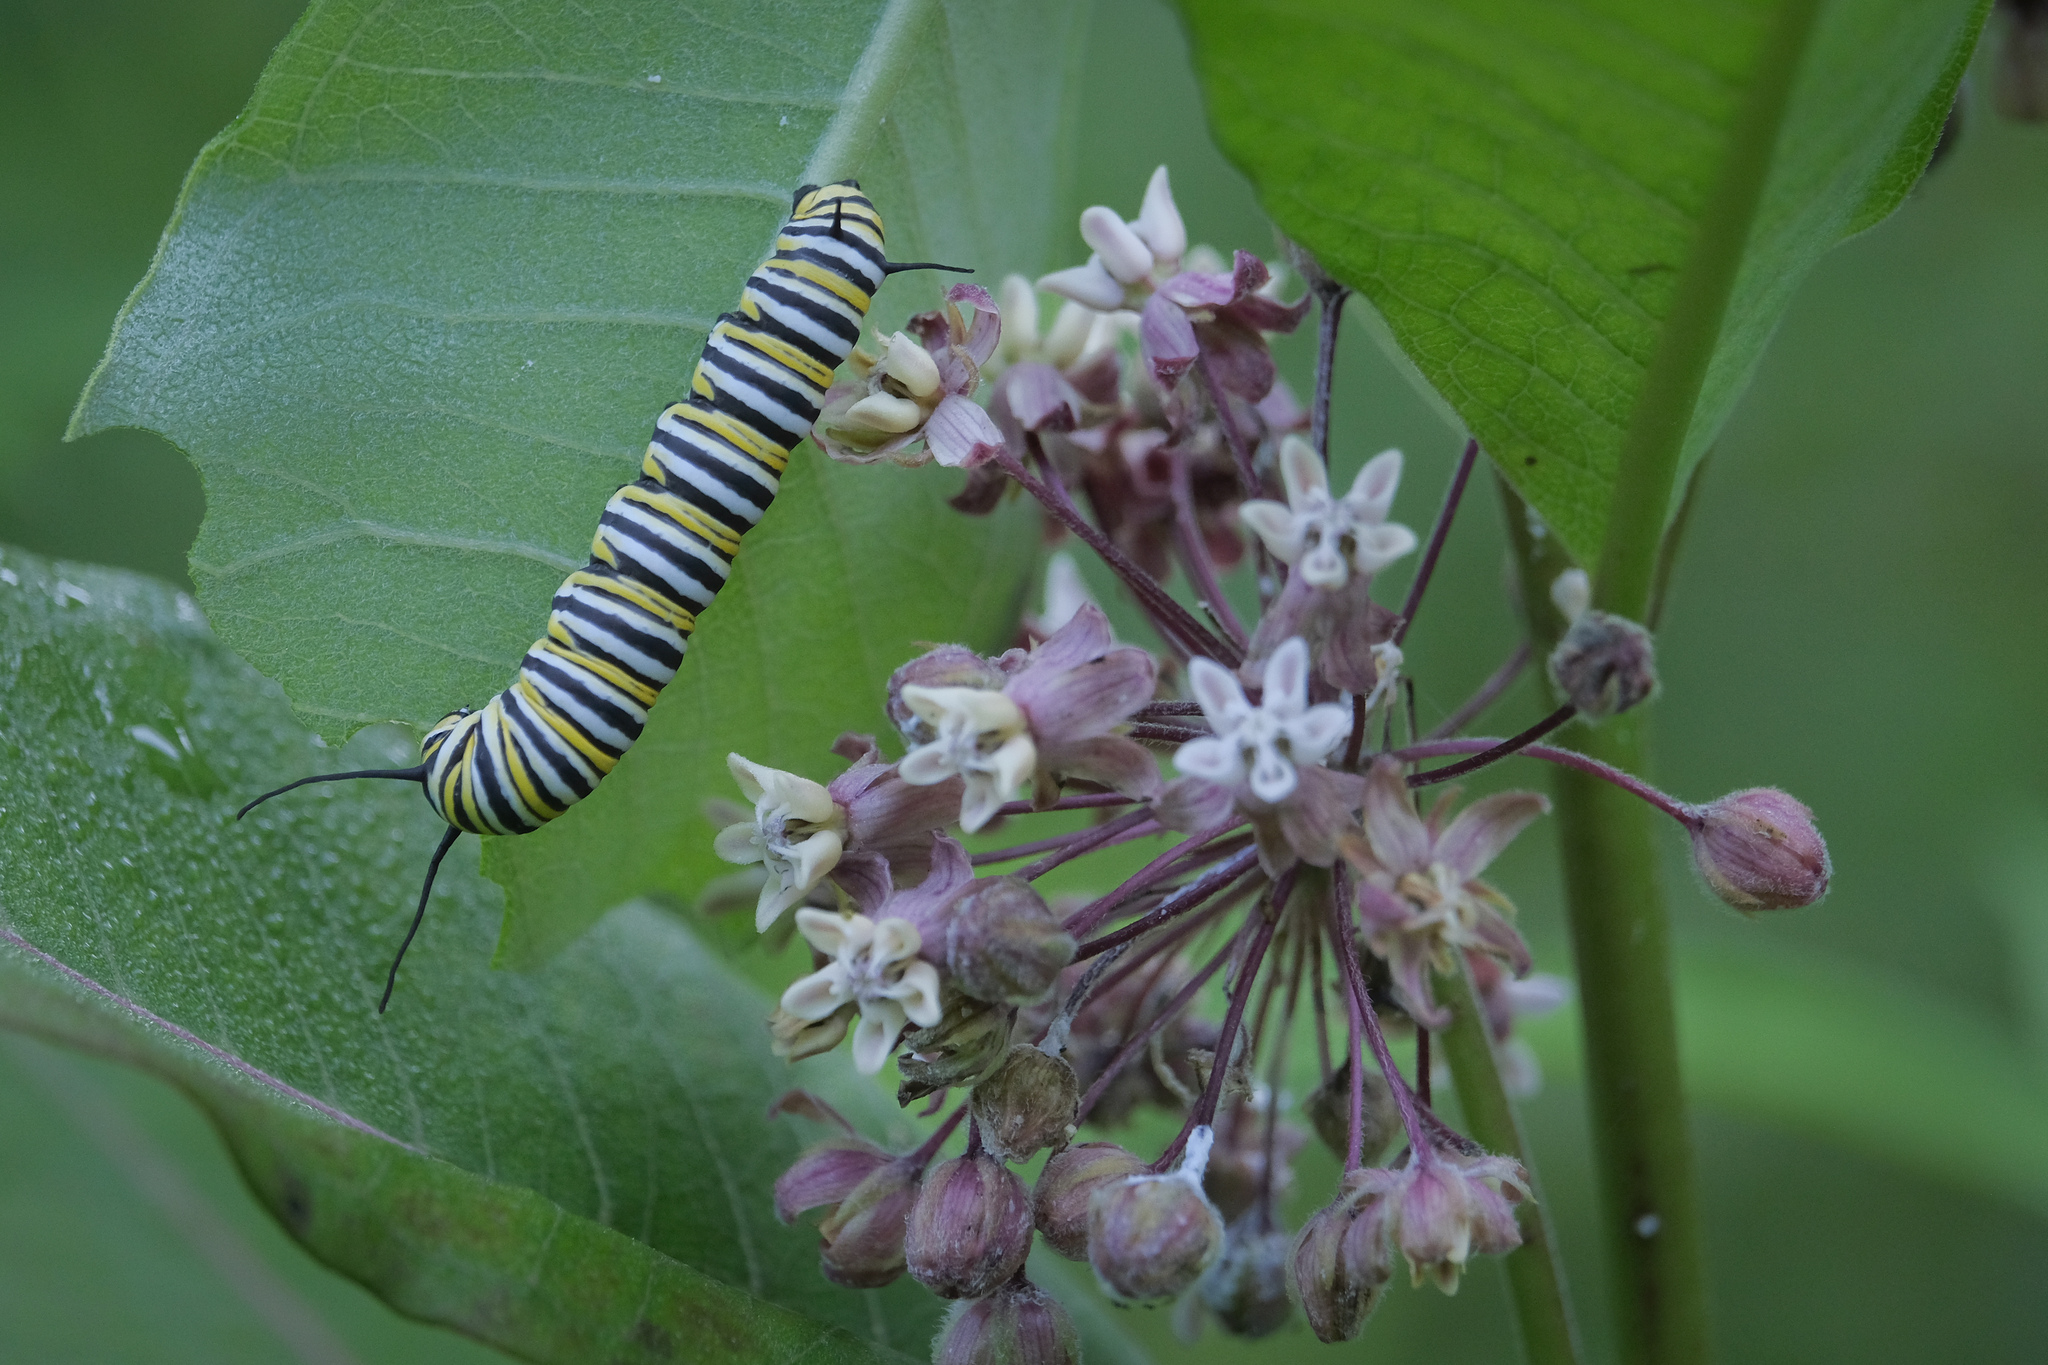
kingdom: Animalia
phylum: Arthropoda
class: Insecta
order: Lepidoptera
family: Nymphalidae
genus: Danaus
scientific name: Danaus plexippus
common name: Monarch
